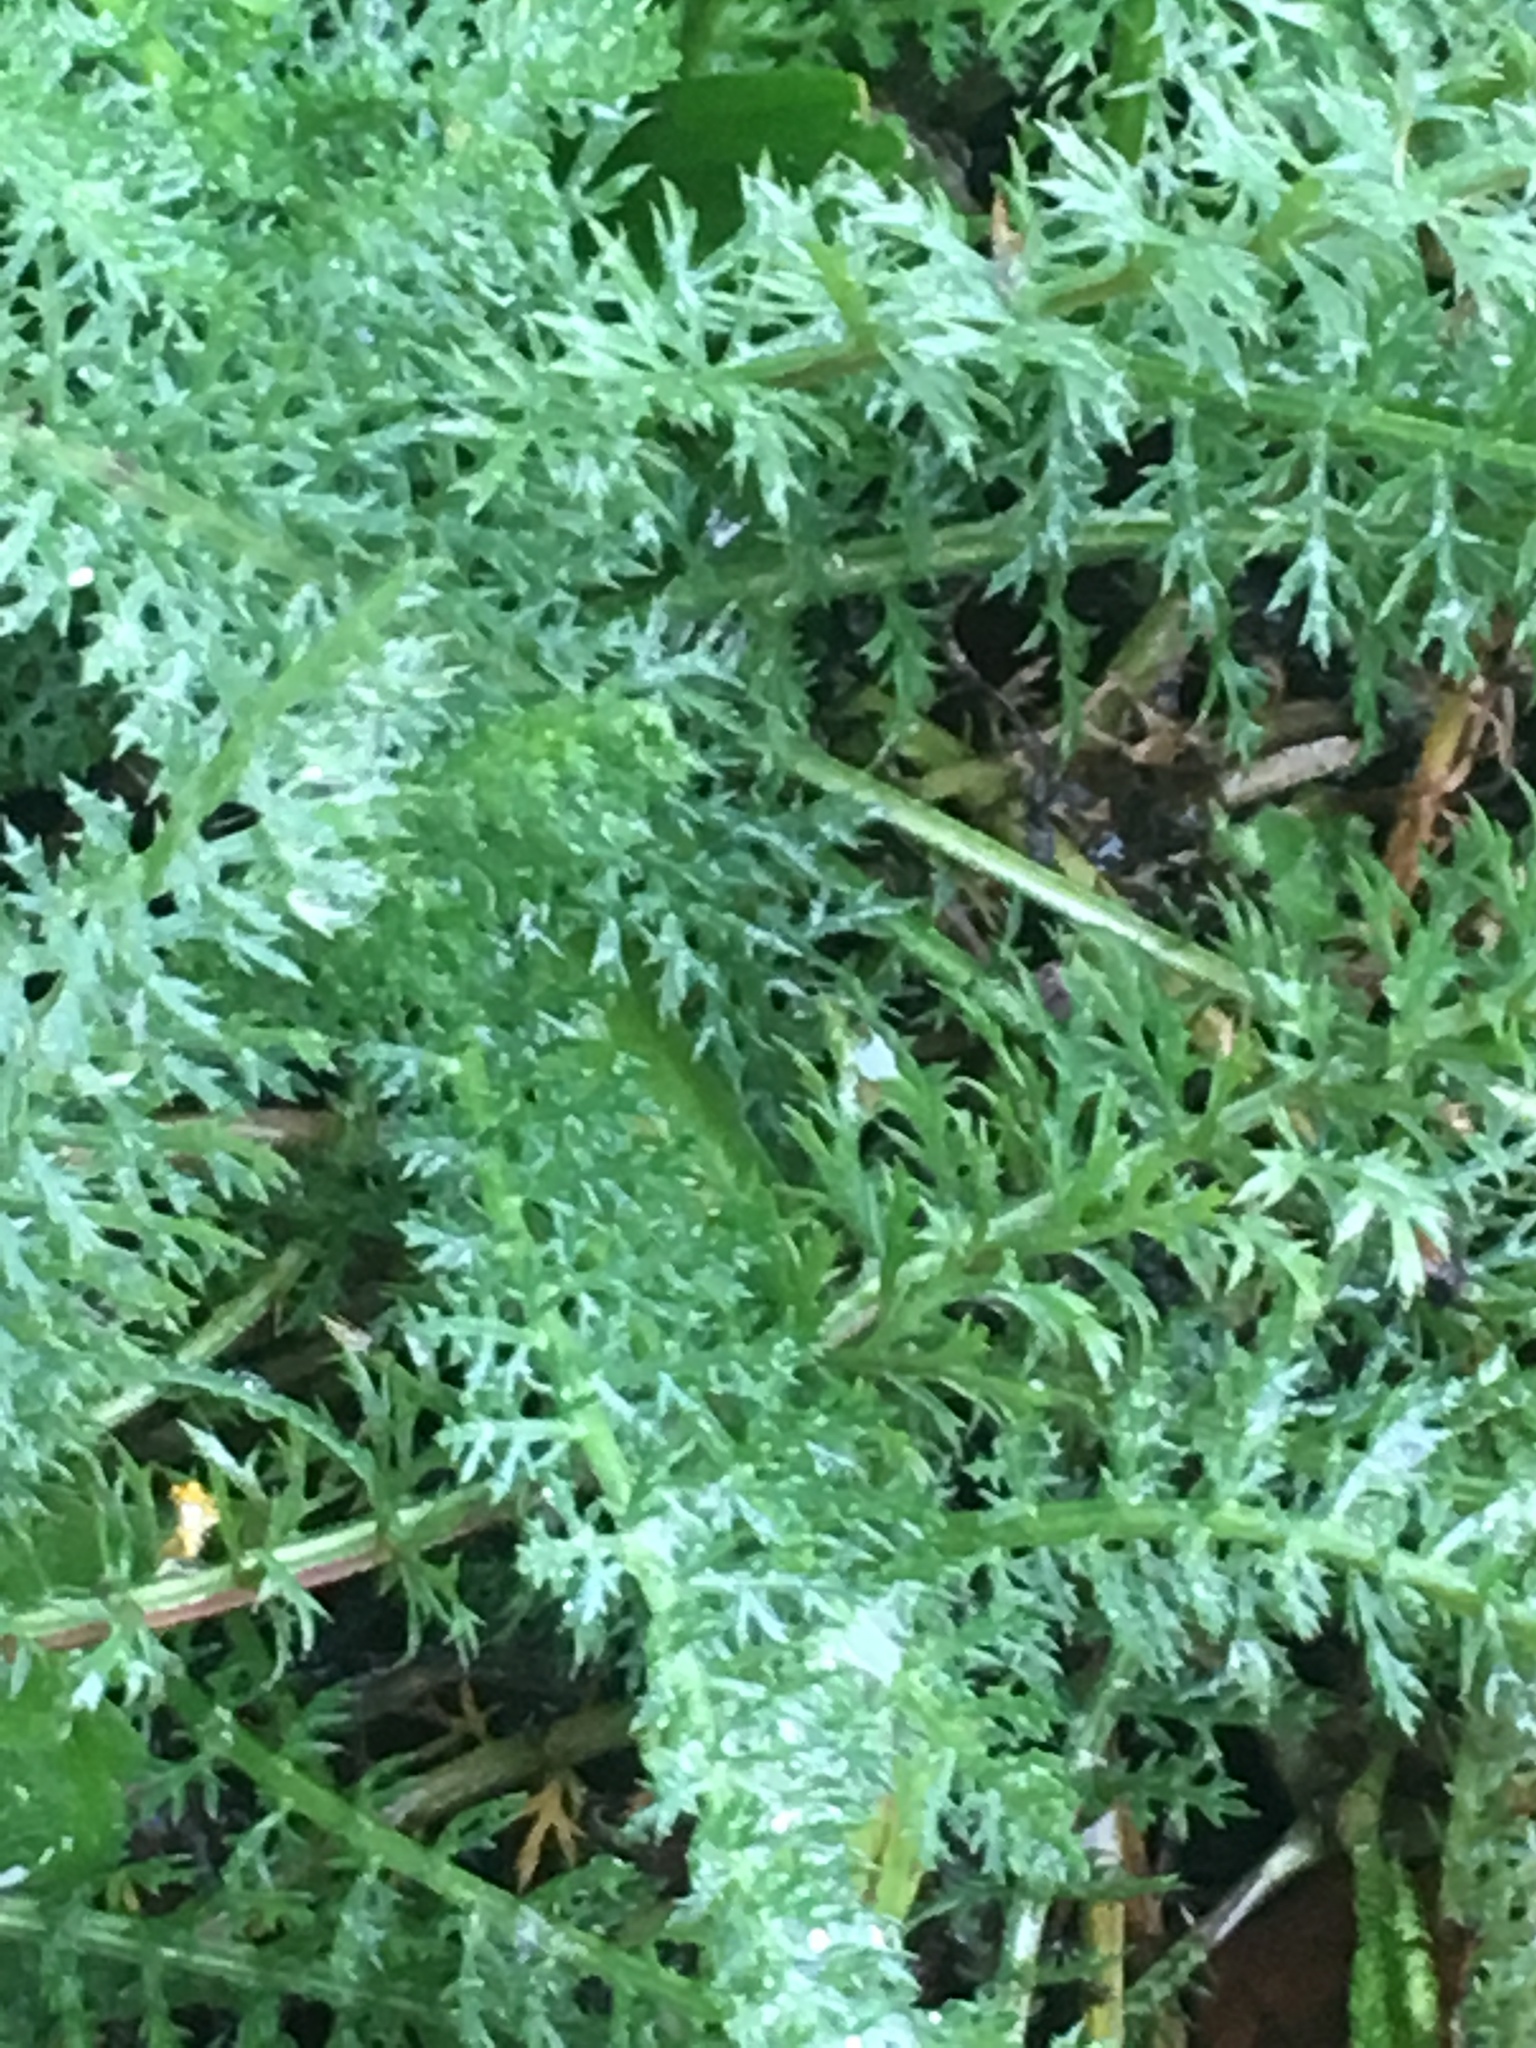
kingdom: Plantae
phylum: Tracheophyta
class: Magnoliopsida
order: Asterales
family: Asteraceae
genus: Achillea
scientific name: Achillea millefolium
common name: Yarrow
